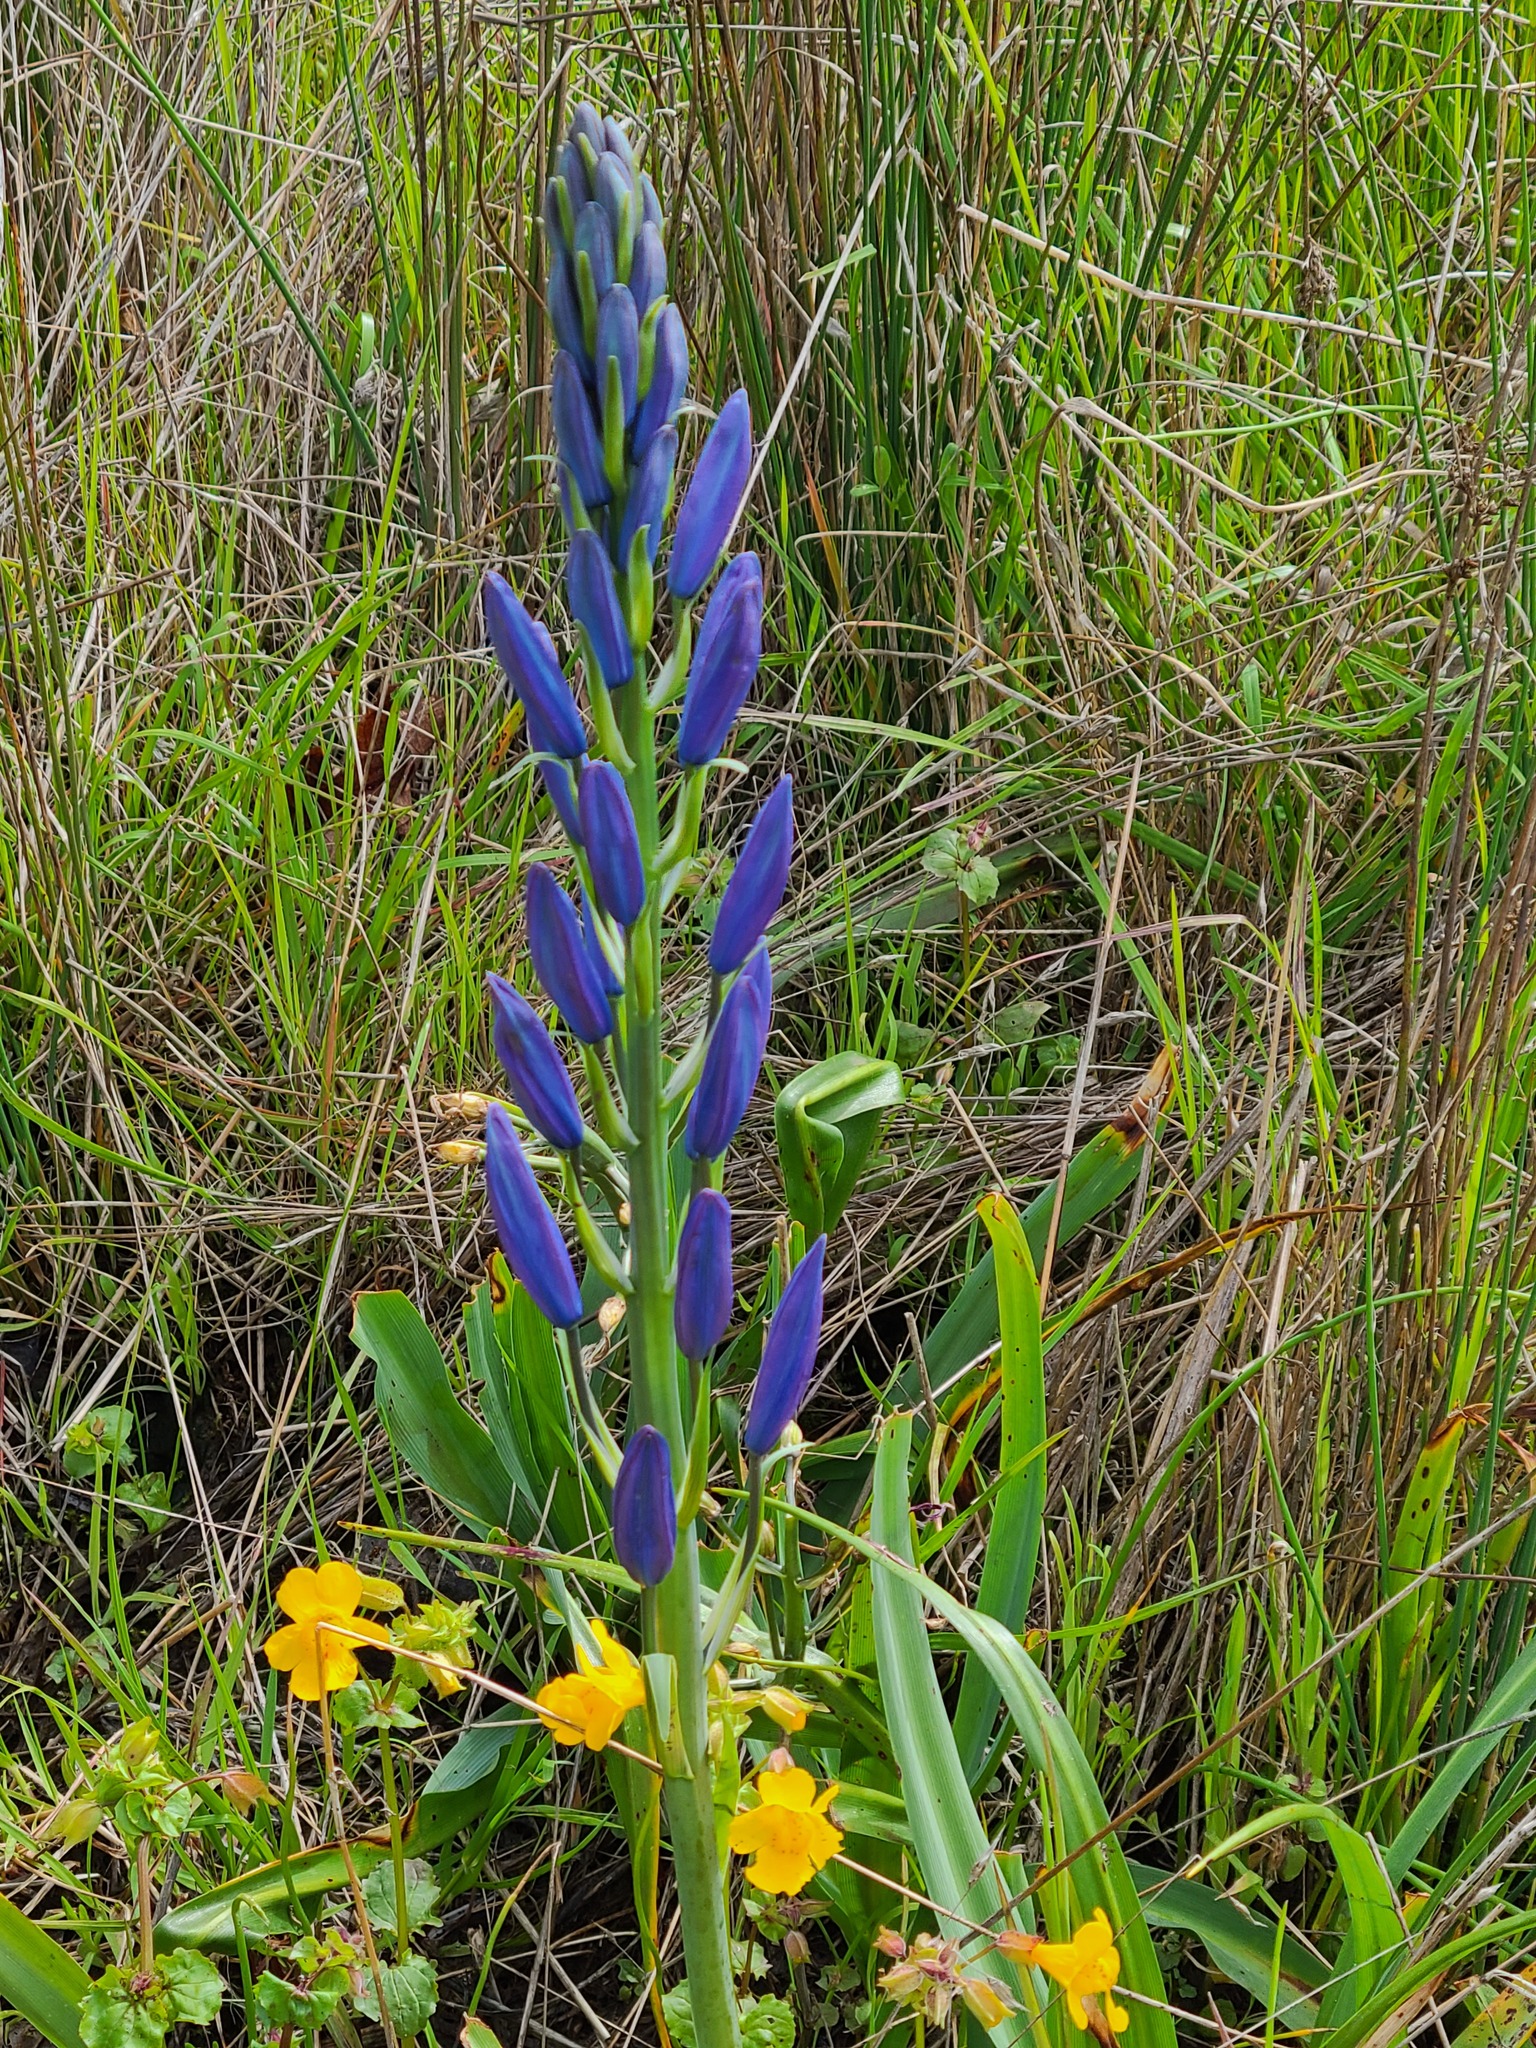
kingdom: Plantae
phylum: Tracheophyta
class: Liliopsida
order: Asparagales
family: Asparagaceae
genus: Camassia
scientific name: Camassia leichtlinii
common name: Leichtlin's camas
